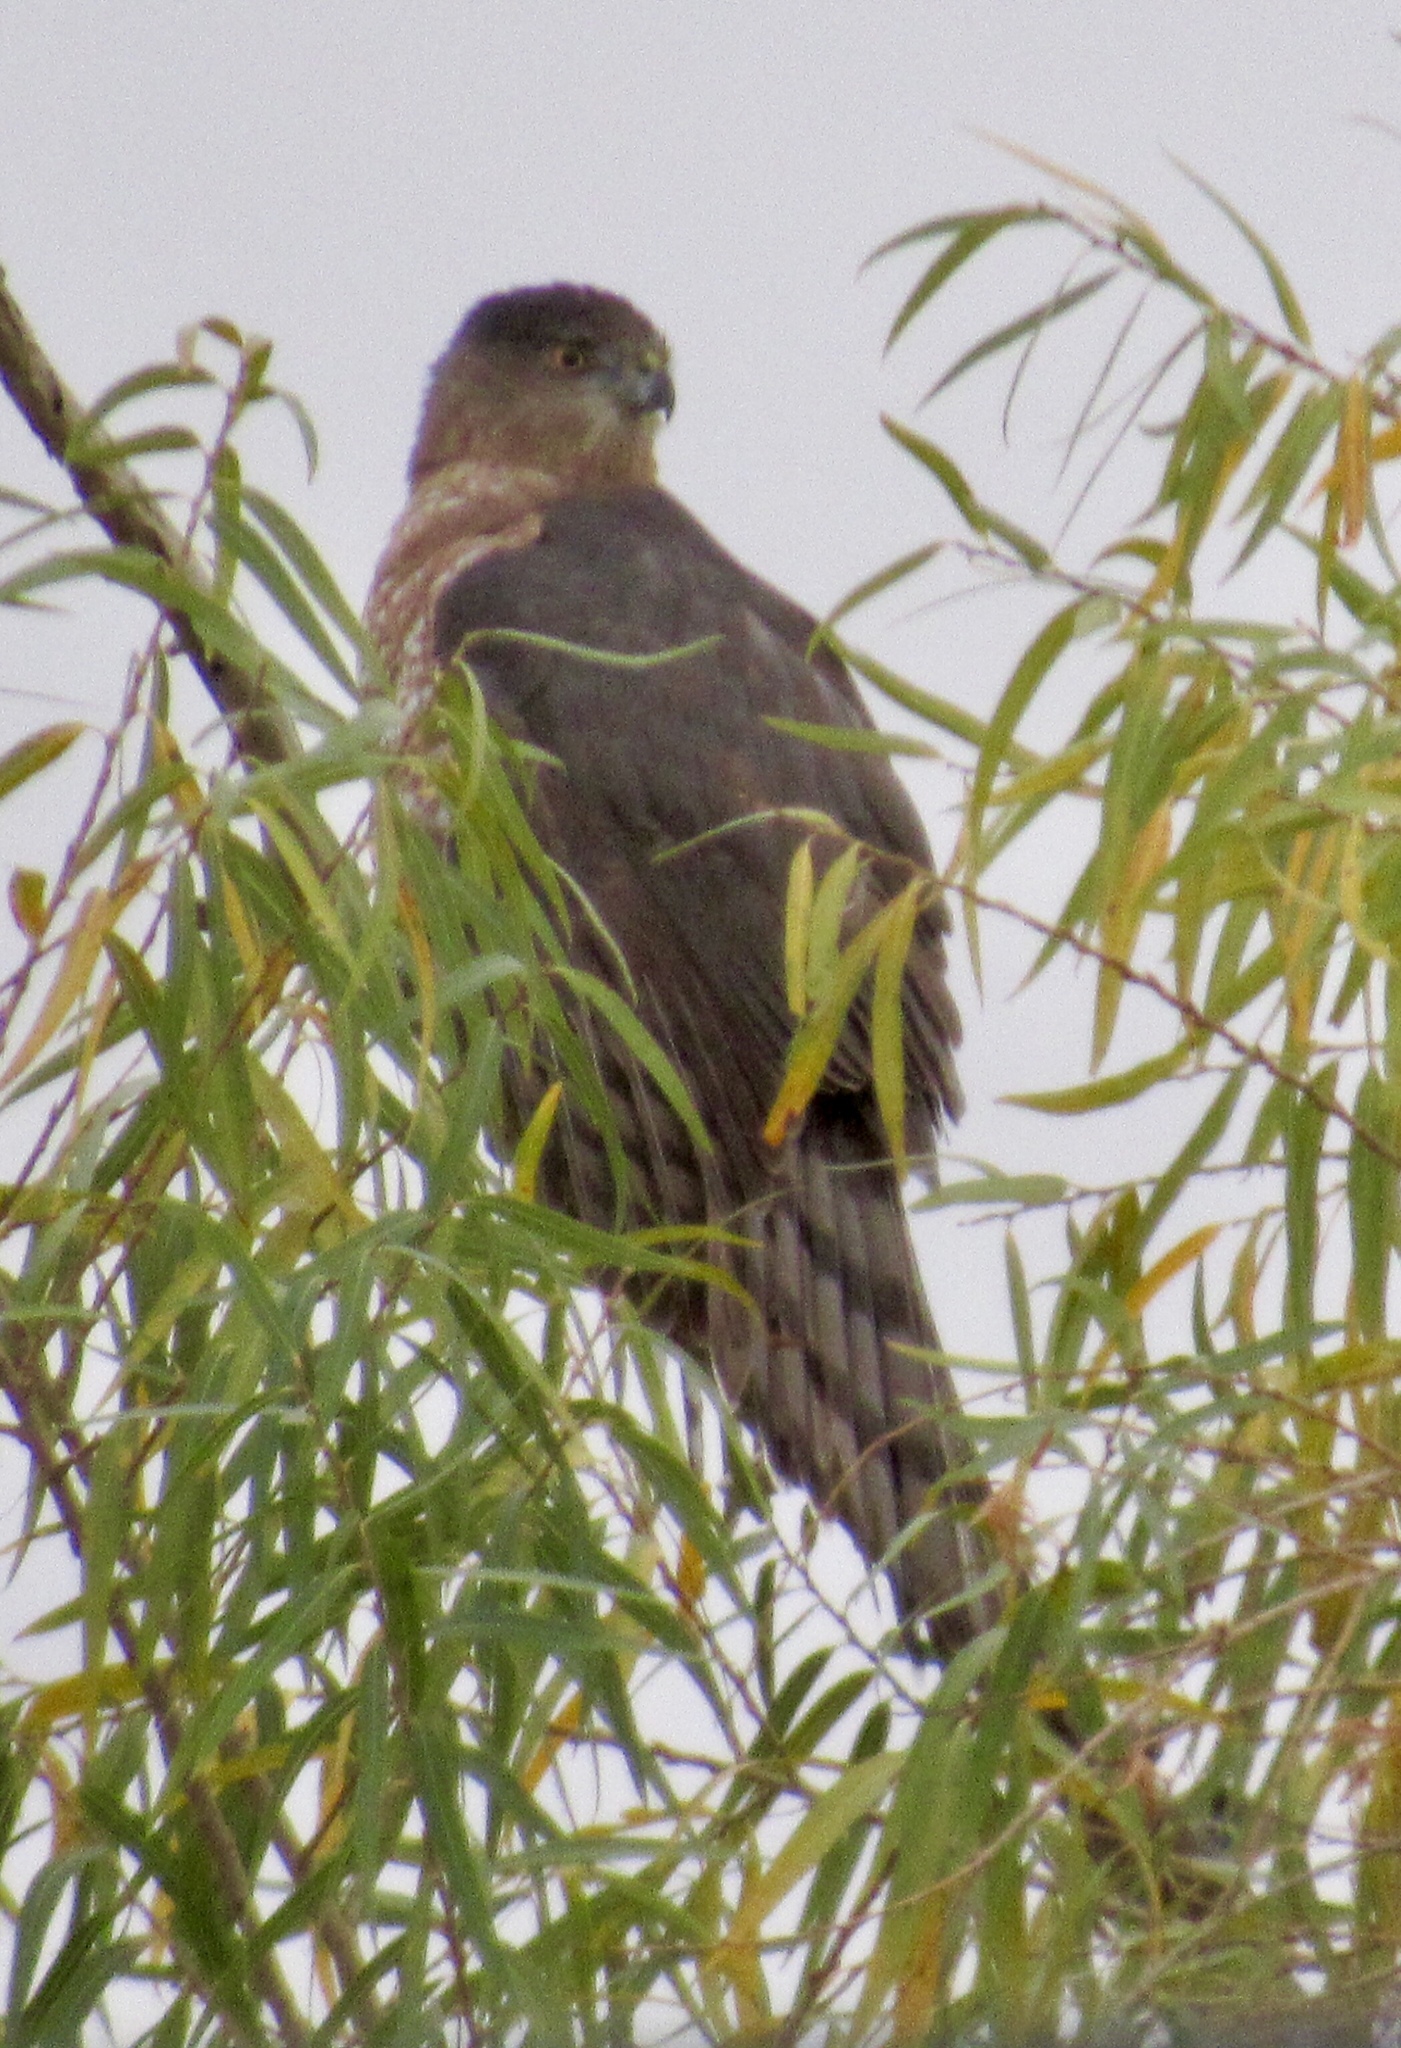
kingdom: Animalia
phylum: Chordata
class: Aves
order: Accipitriformes
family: Accipitridae
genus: Accipiter
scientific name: Accipiter cooperii
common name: Cooper's hawk
